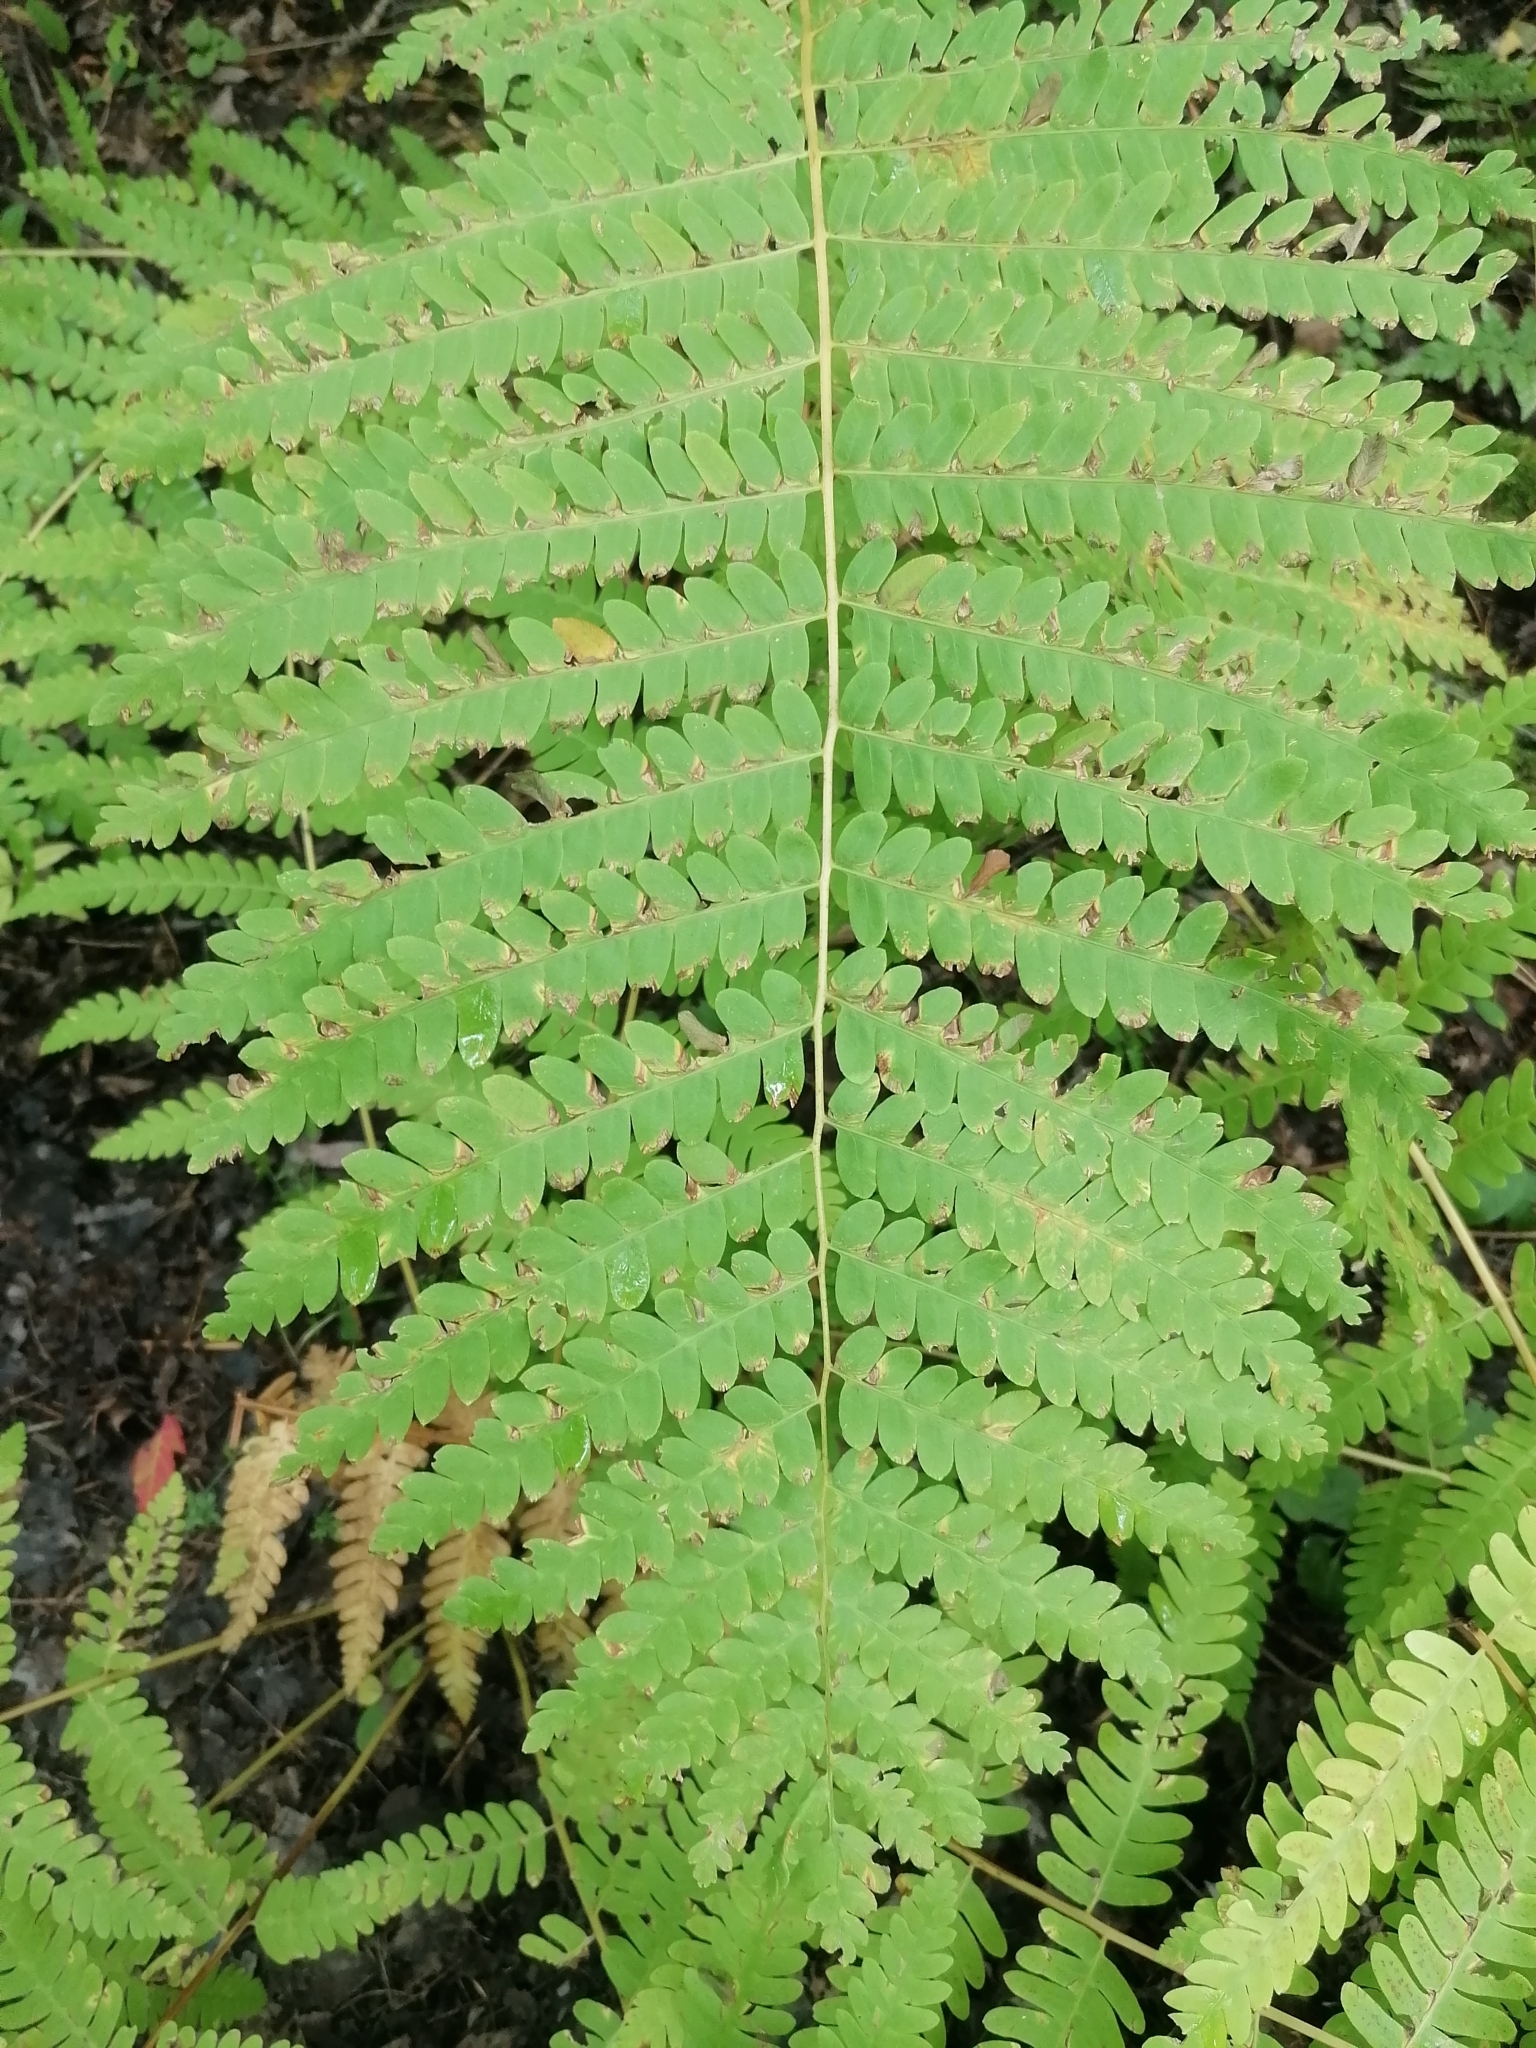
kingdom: Plantae
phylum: Tracheophyta
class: Polypodiopsida
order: Osmundales
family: Osmundaceae
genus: Claytosmunda
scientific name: Claytosmunda claytoniana
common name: Clayton's fern
